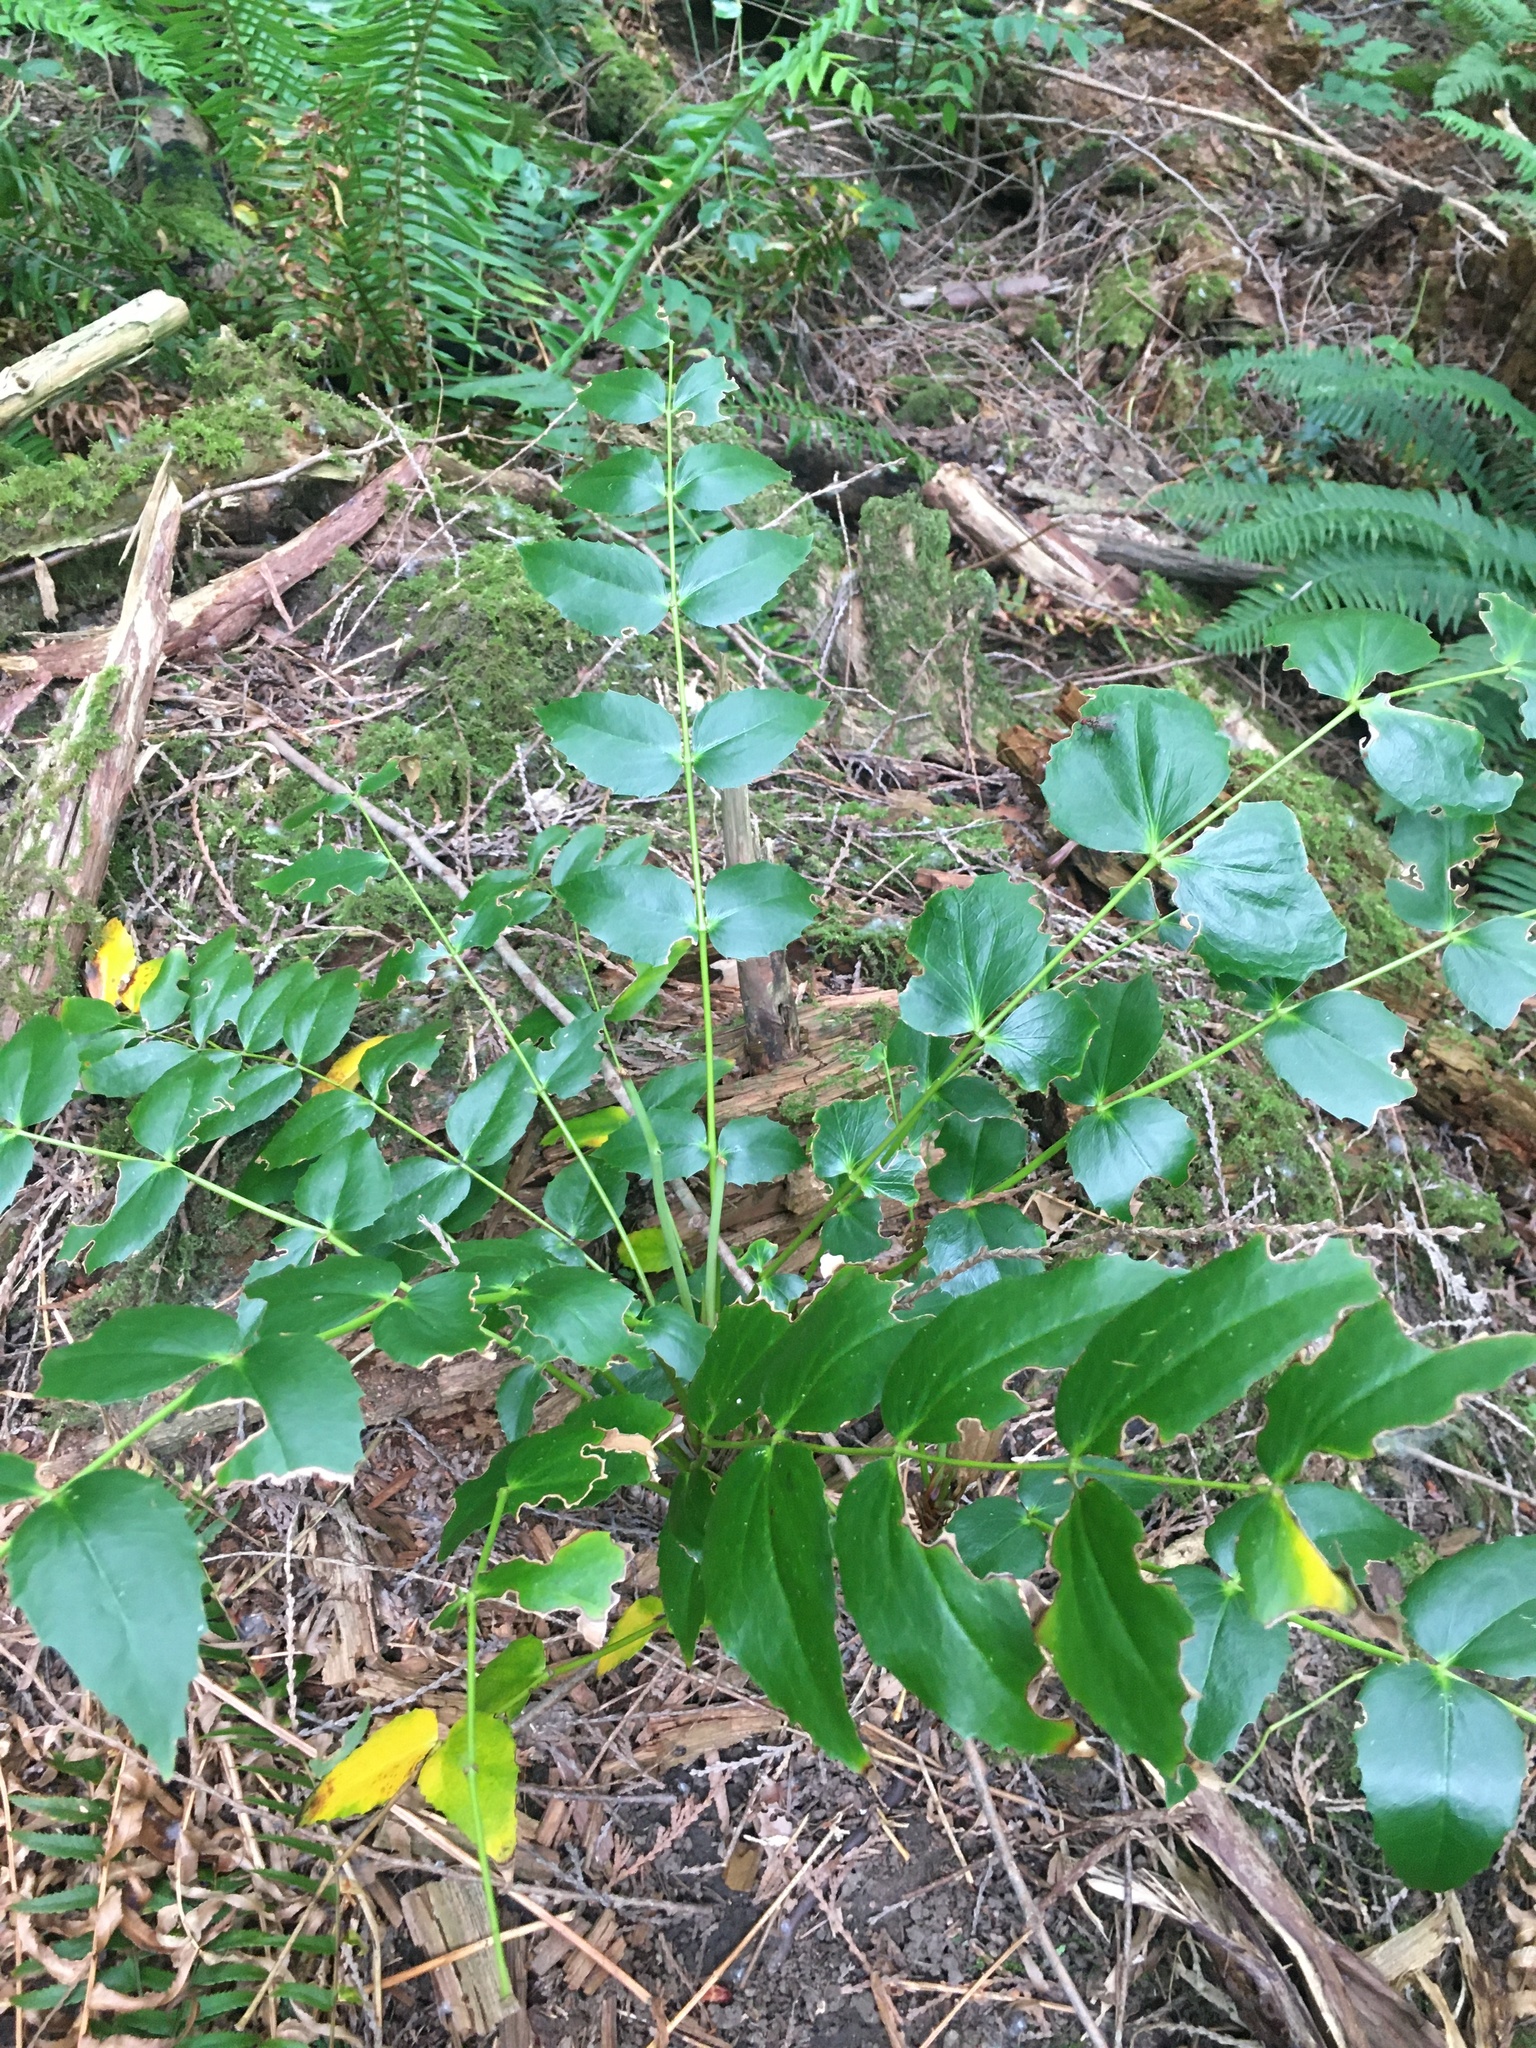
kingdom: Plantae
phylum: Tracheophyta
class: Magnoliopsida
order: Ranunculales
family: Berberidaceae
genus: Mahonia
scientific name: Mahonia nervosa
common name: Cascade oregon-grape
